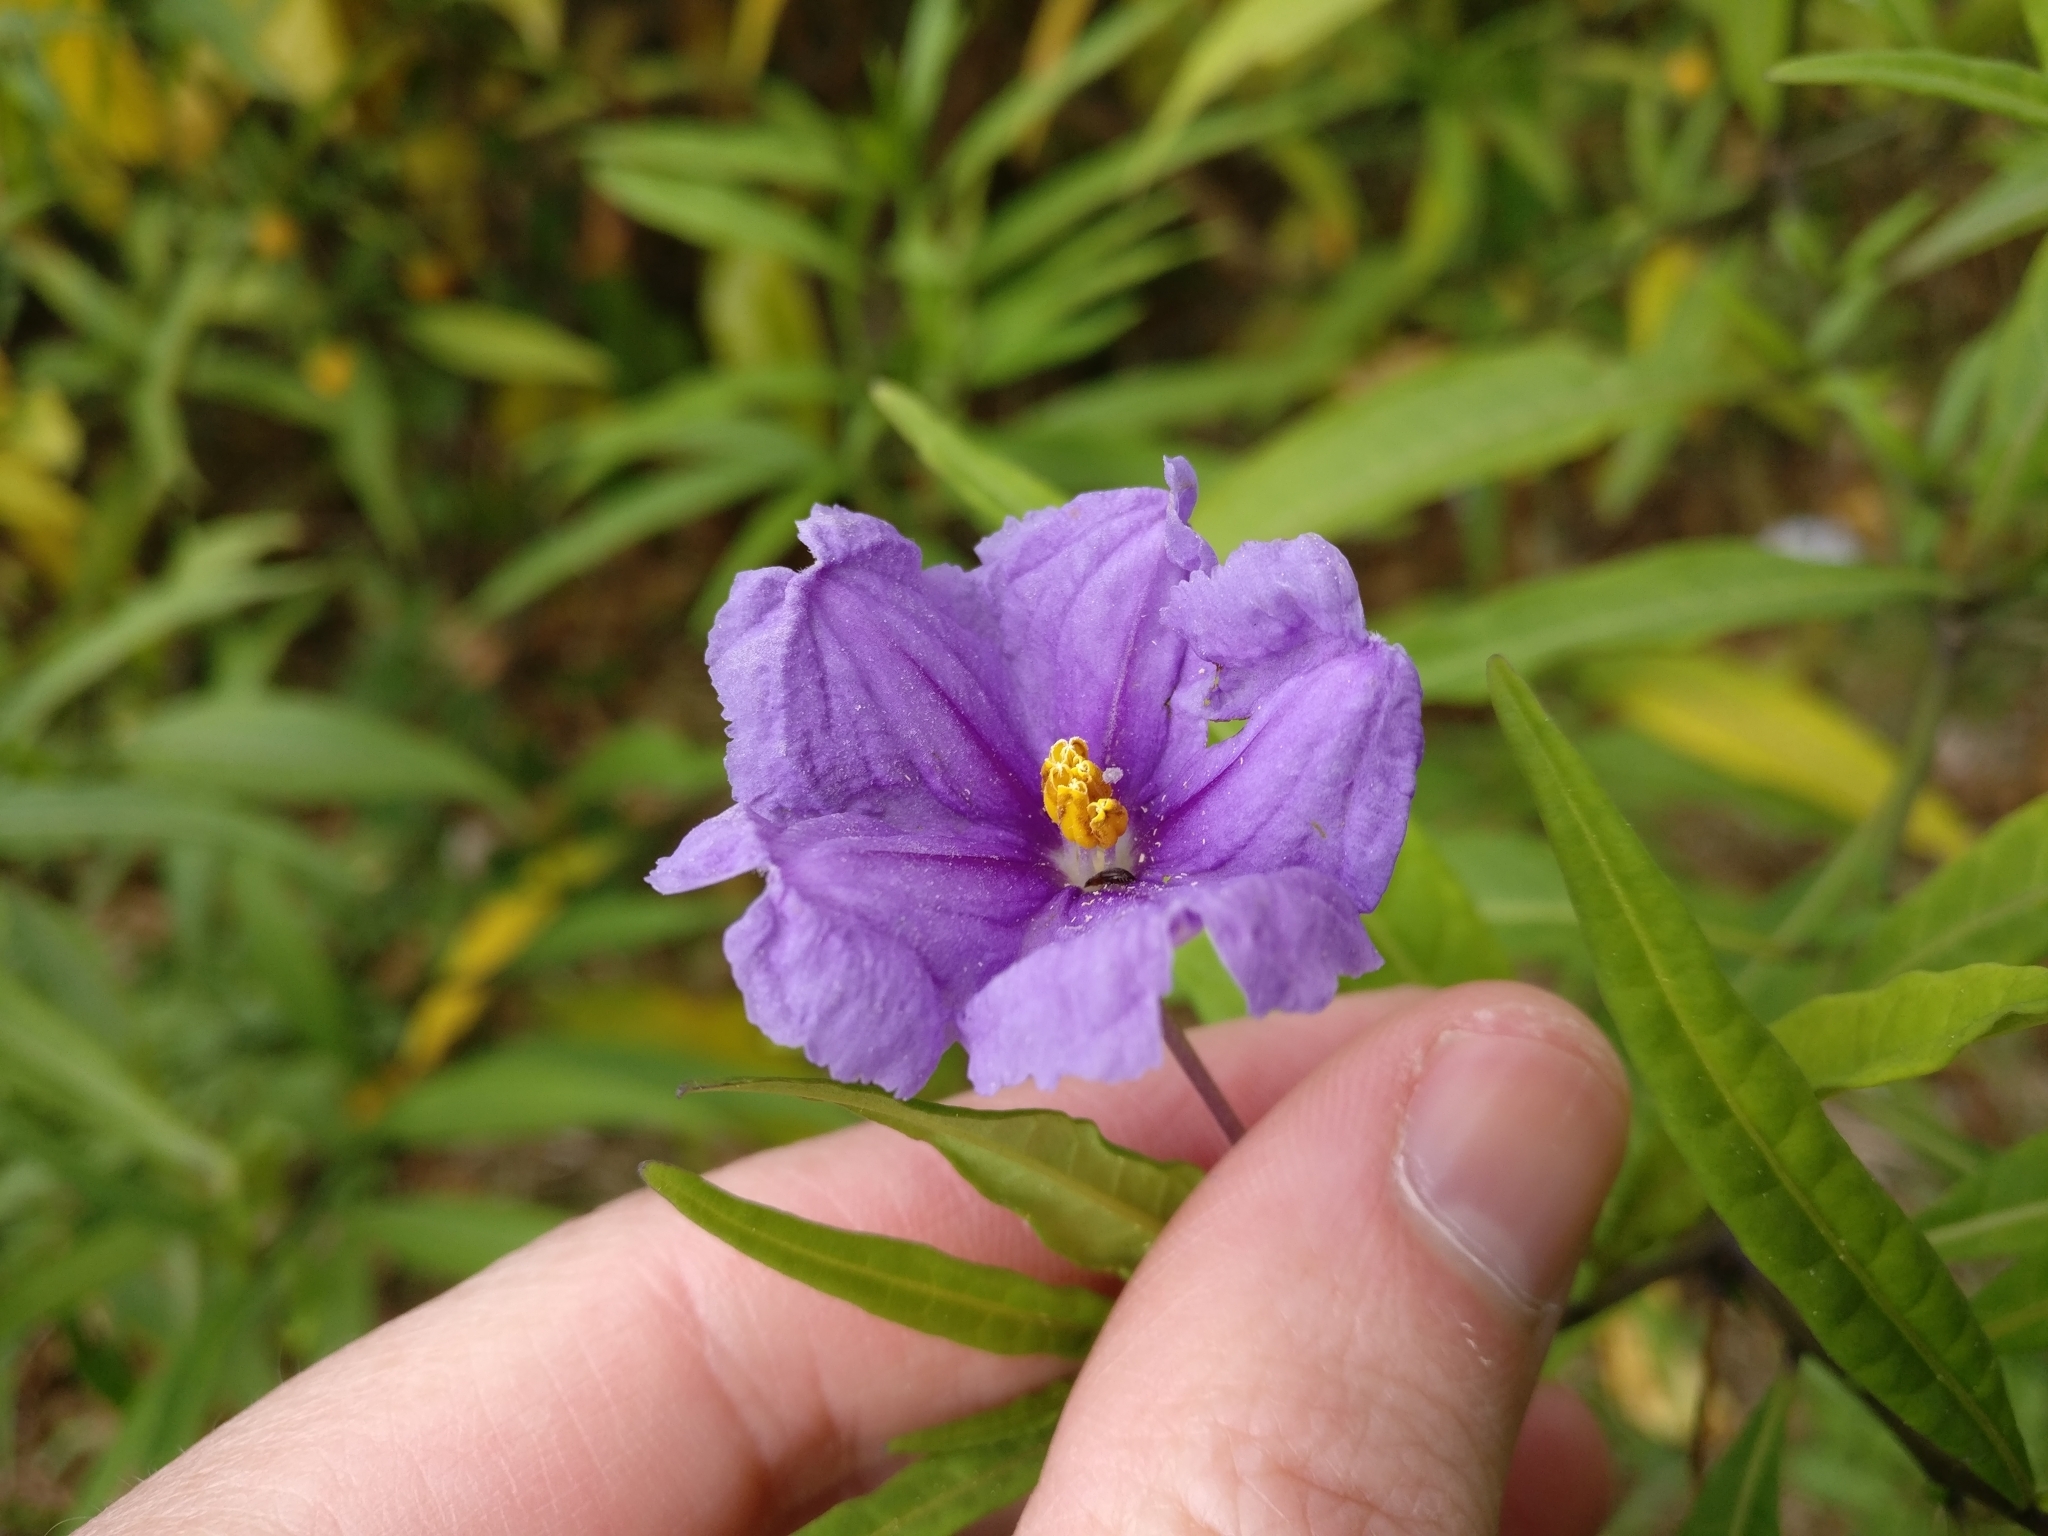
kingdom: Plantae
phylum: Tracheophyta
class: Magnoliopsida
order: Solanales
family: Solanaceae
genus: Solanum
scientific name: Solanum laciniatum
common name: Kangaroo-apple
